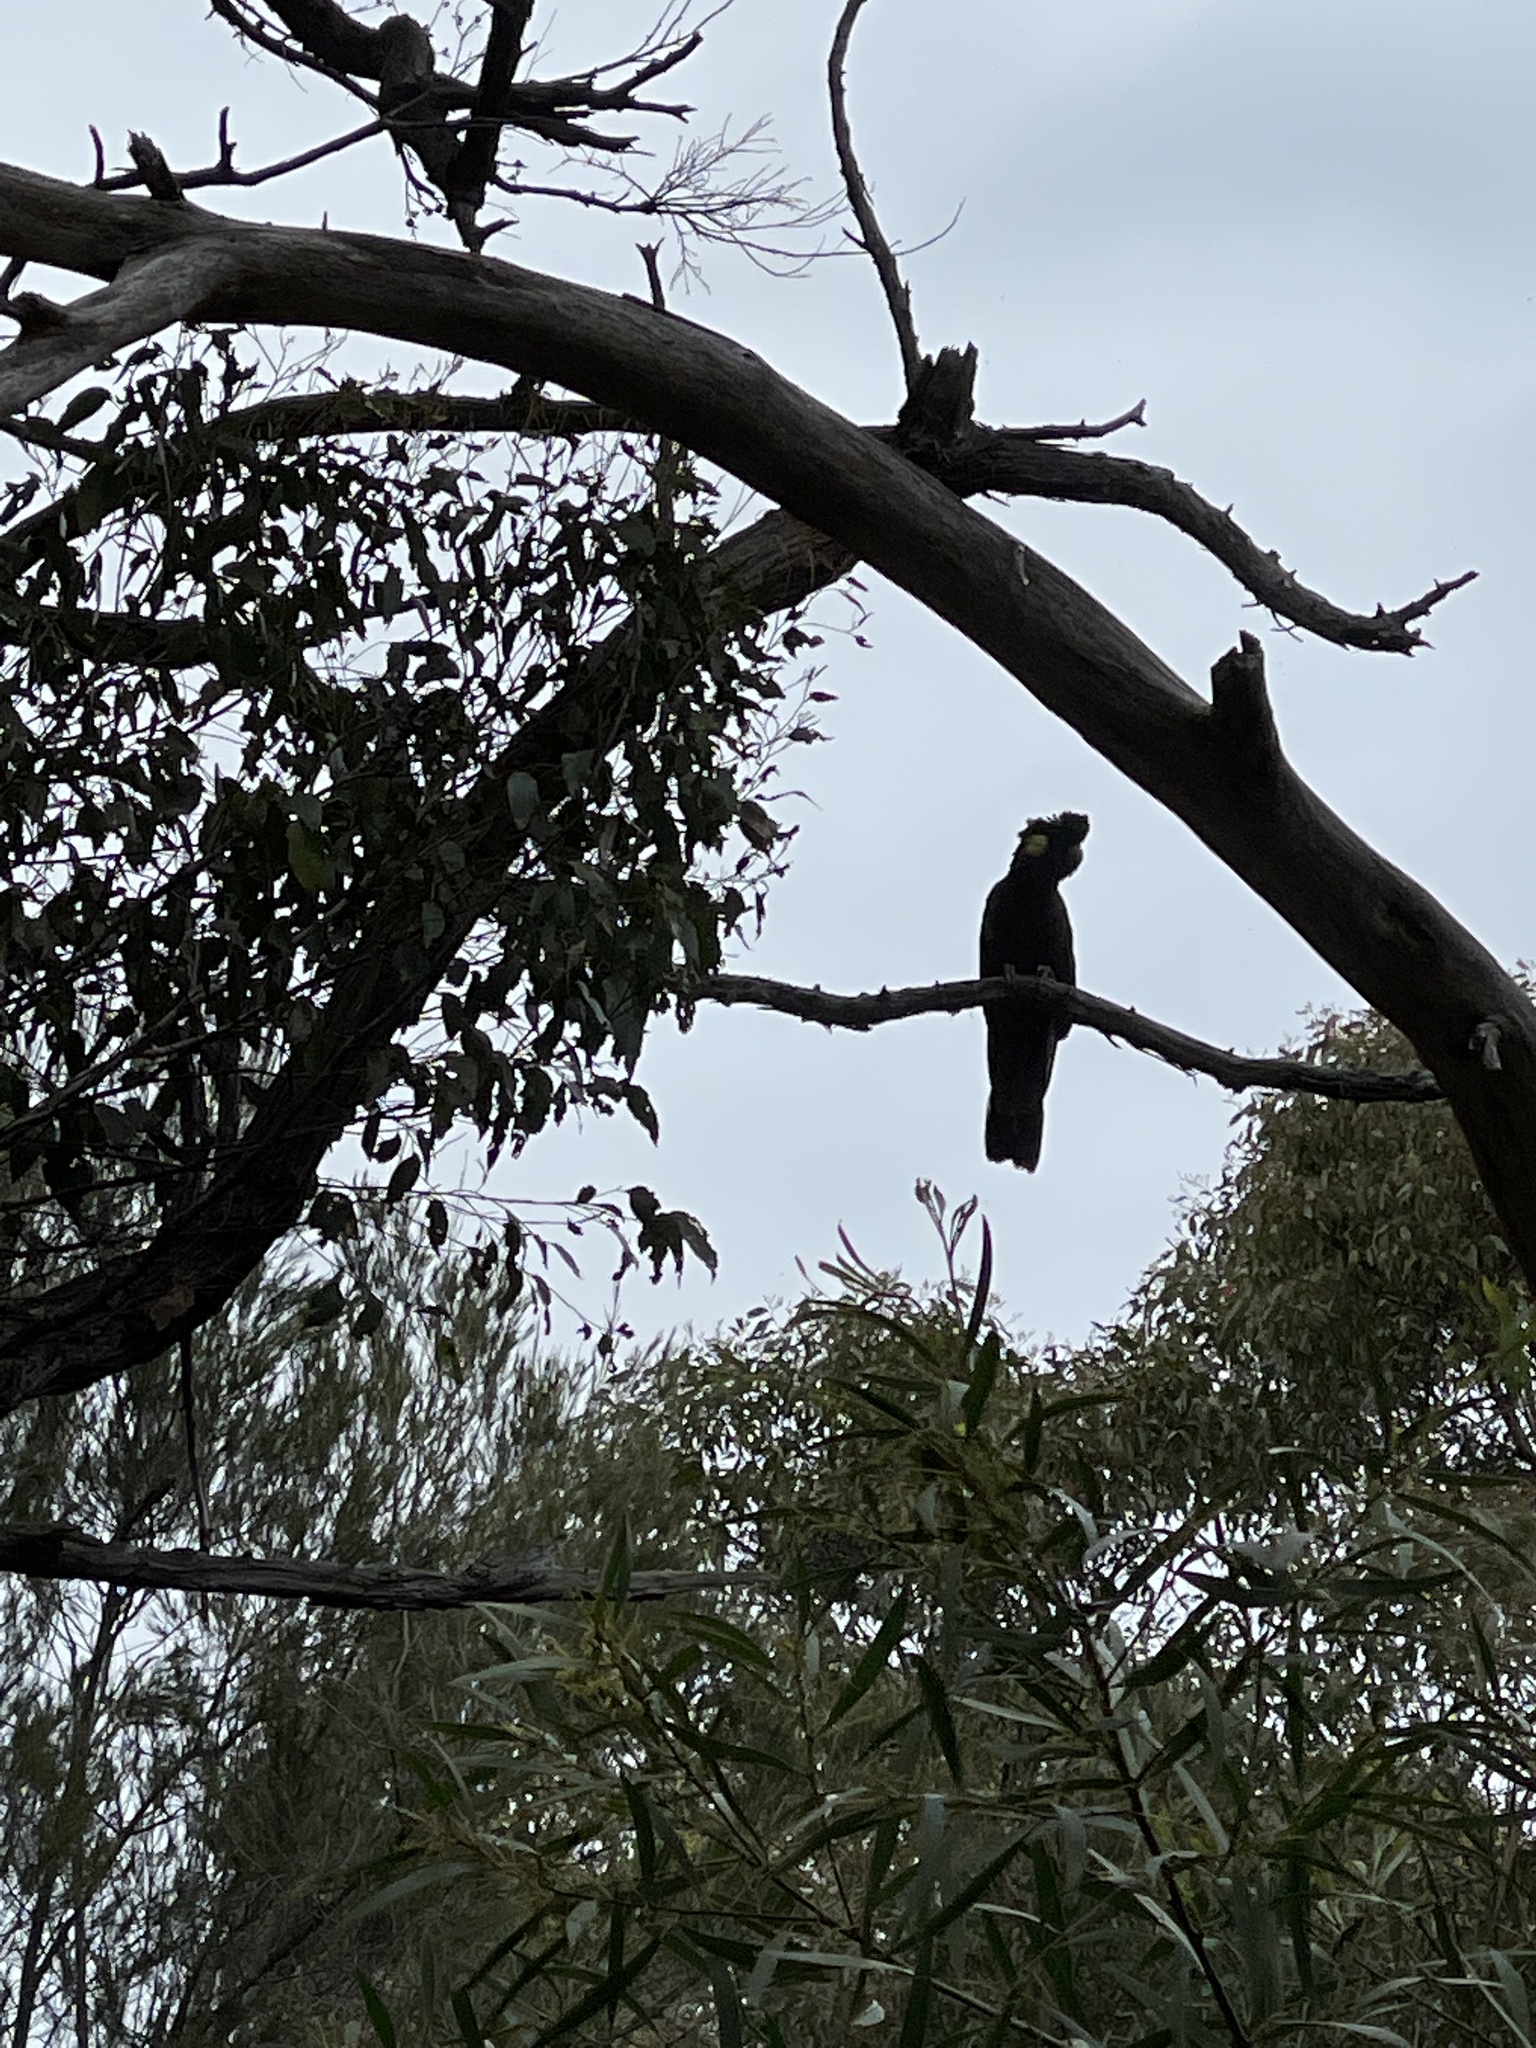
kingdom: Animalia
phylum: Chordata
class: Aves
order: Psittaciformes
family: Cacatuidae
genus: Zanda
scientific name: Zanda funerea
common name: Yellow-tailed black-cockatoo
